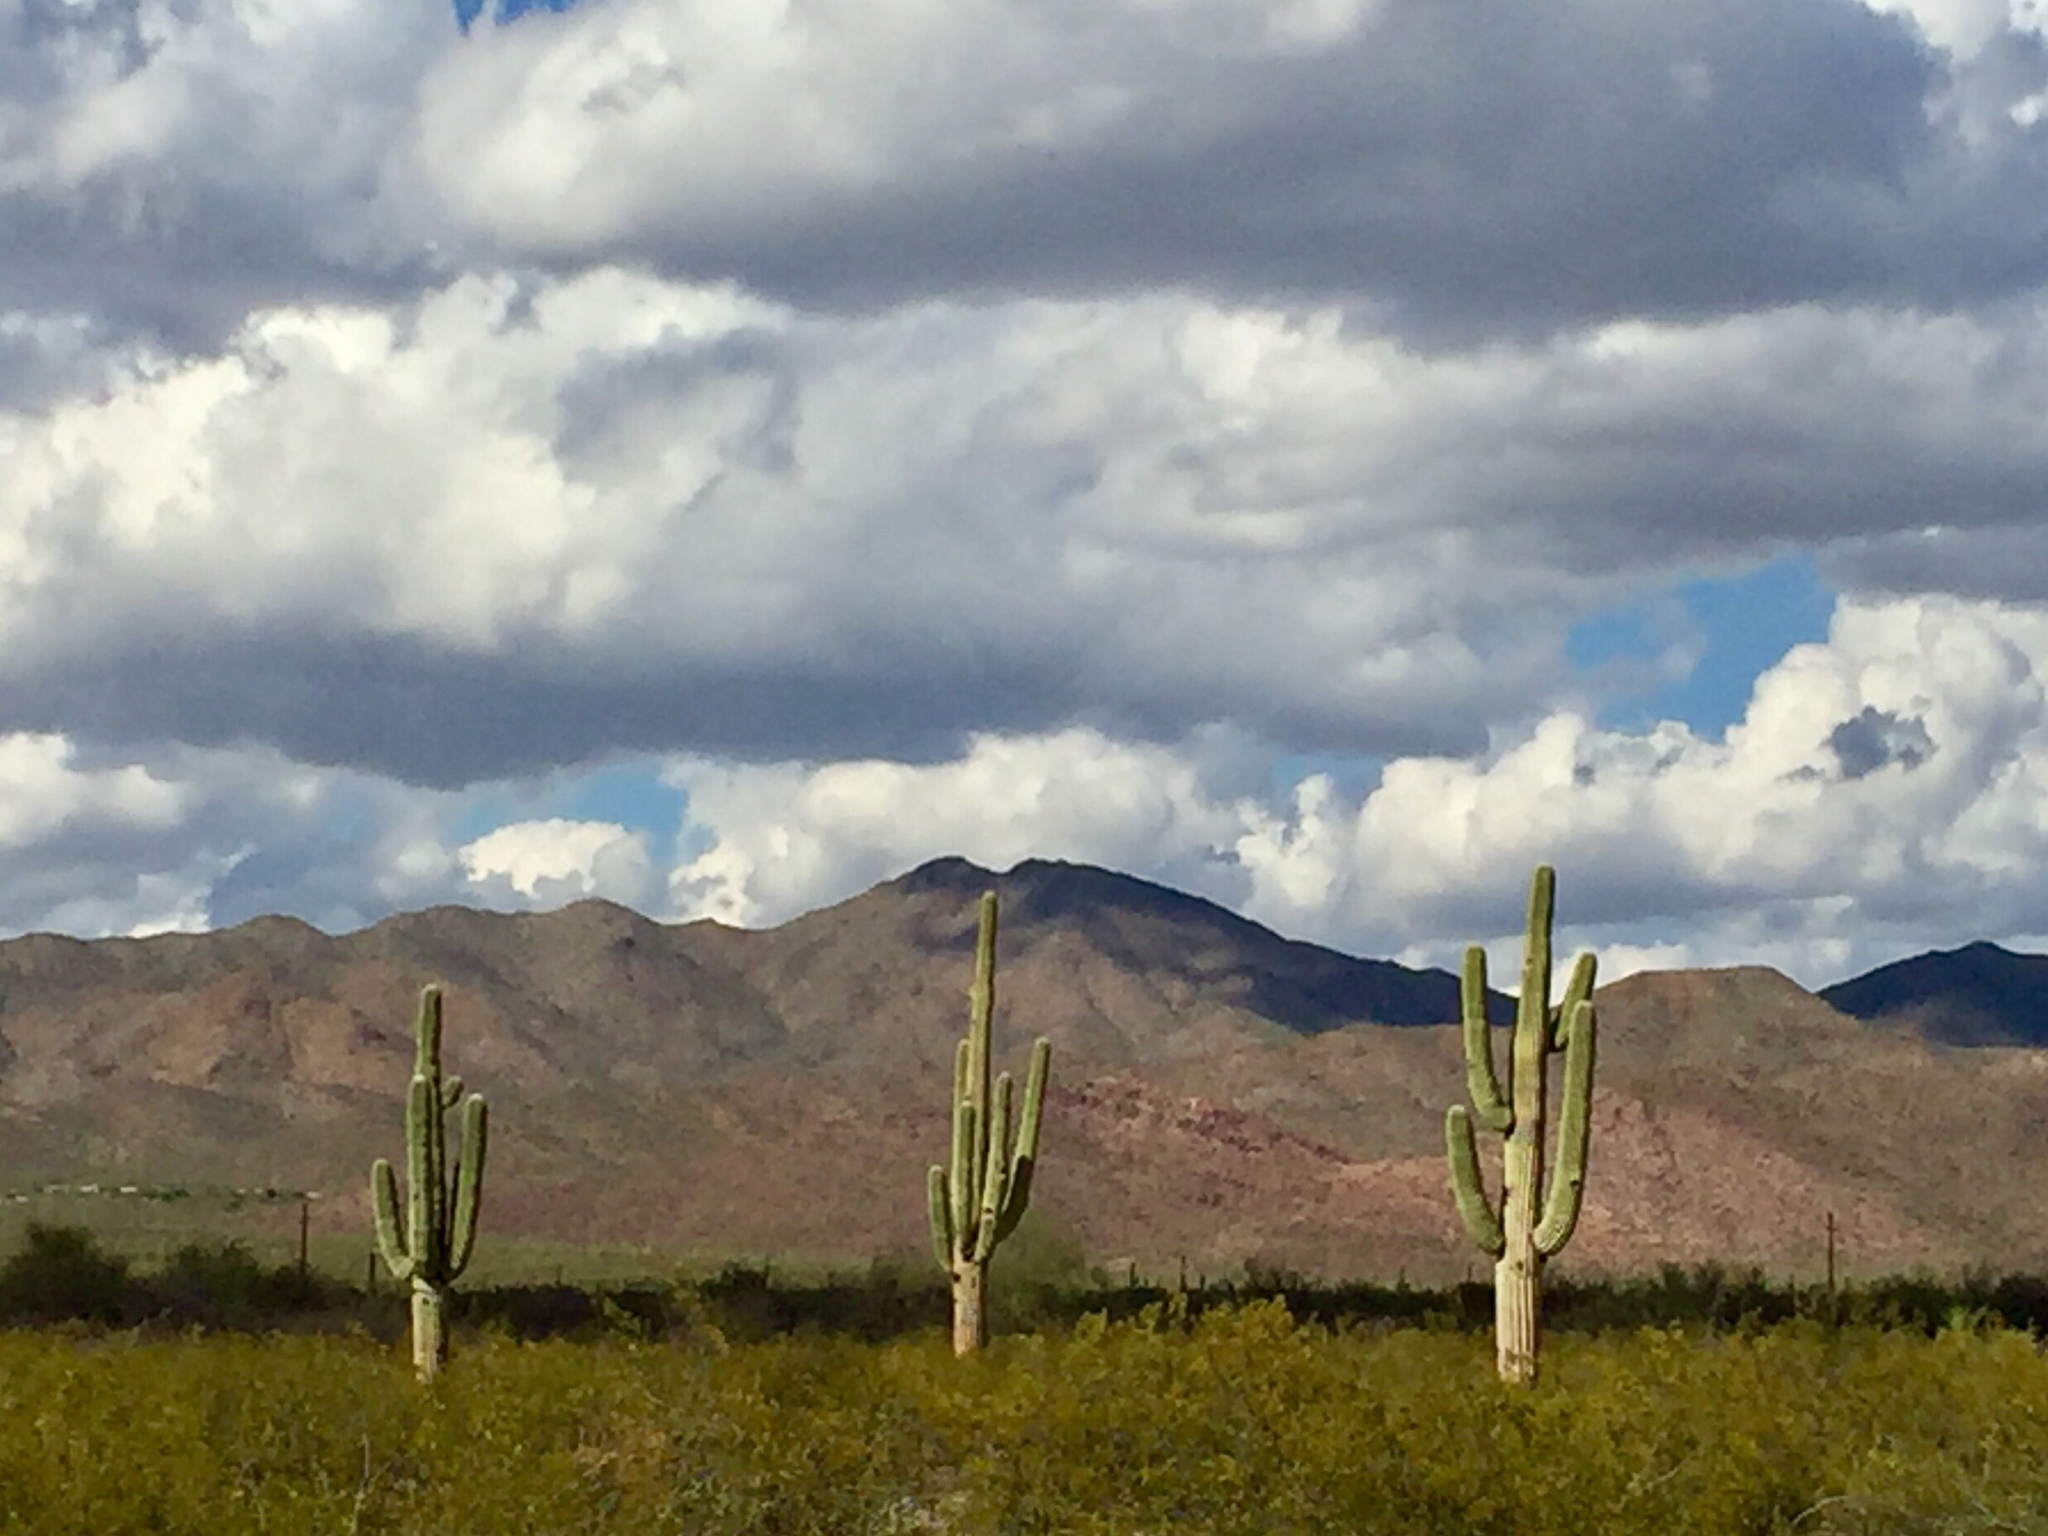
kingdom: Plantae
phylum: Tracheophyta
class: Magnoliopsida
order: Caryophyllales
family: Cactaceae
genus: Carnegiea
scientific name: Carnegiea gigantea
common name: Saguaro
